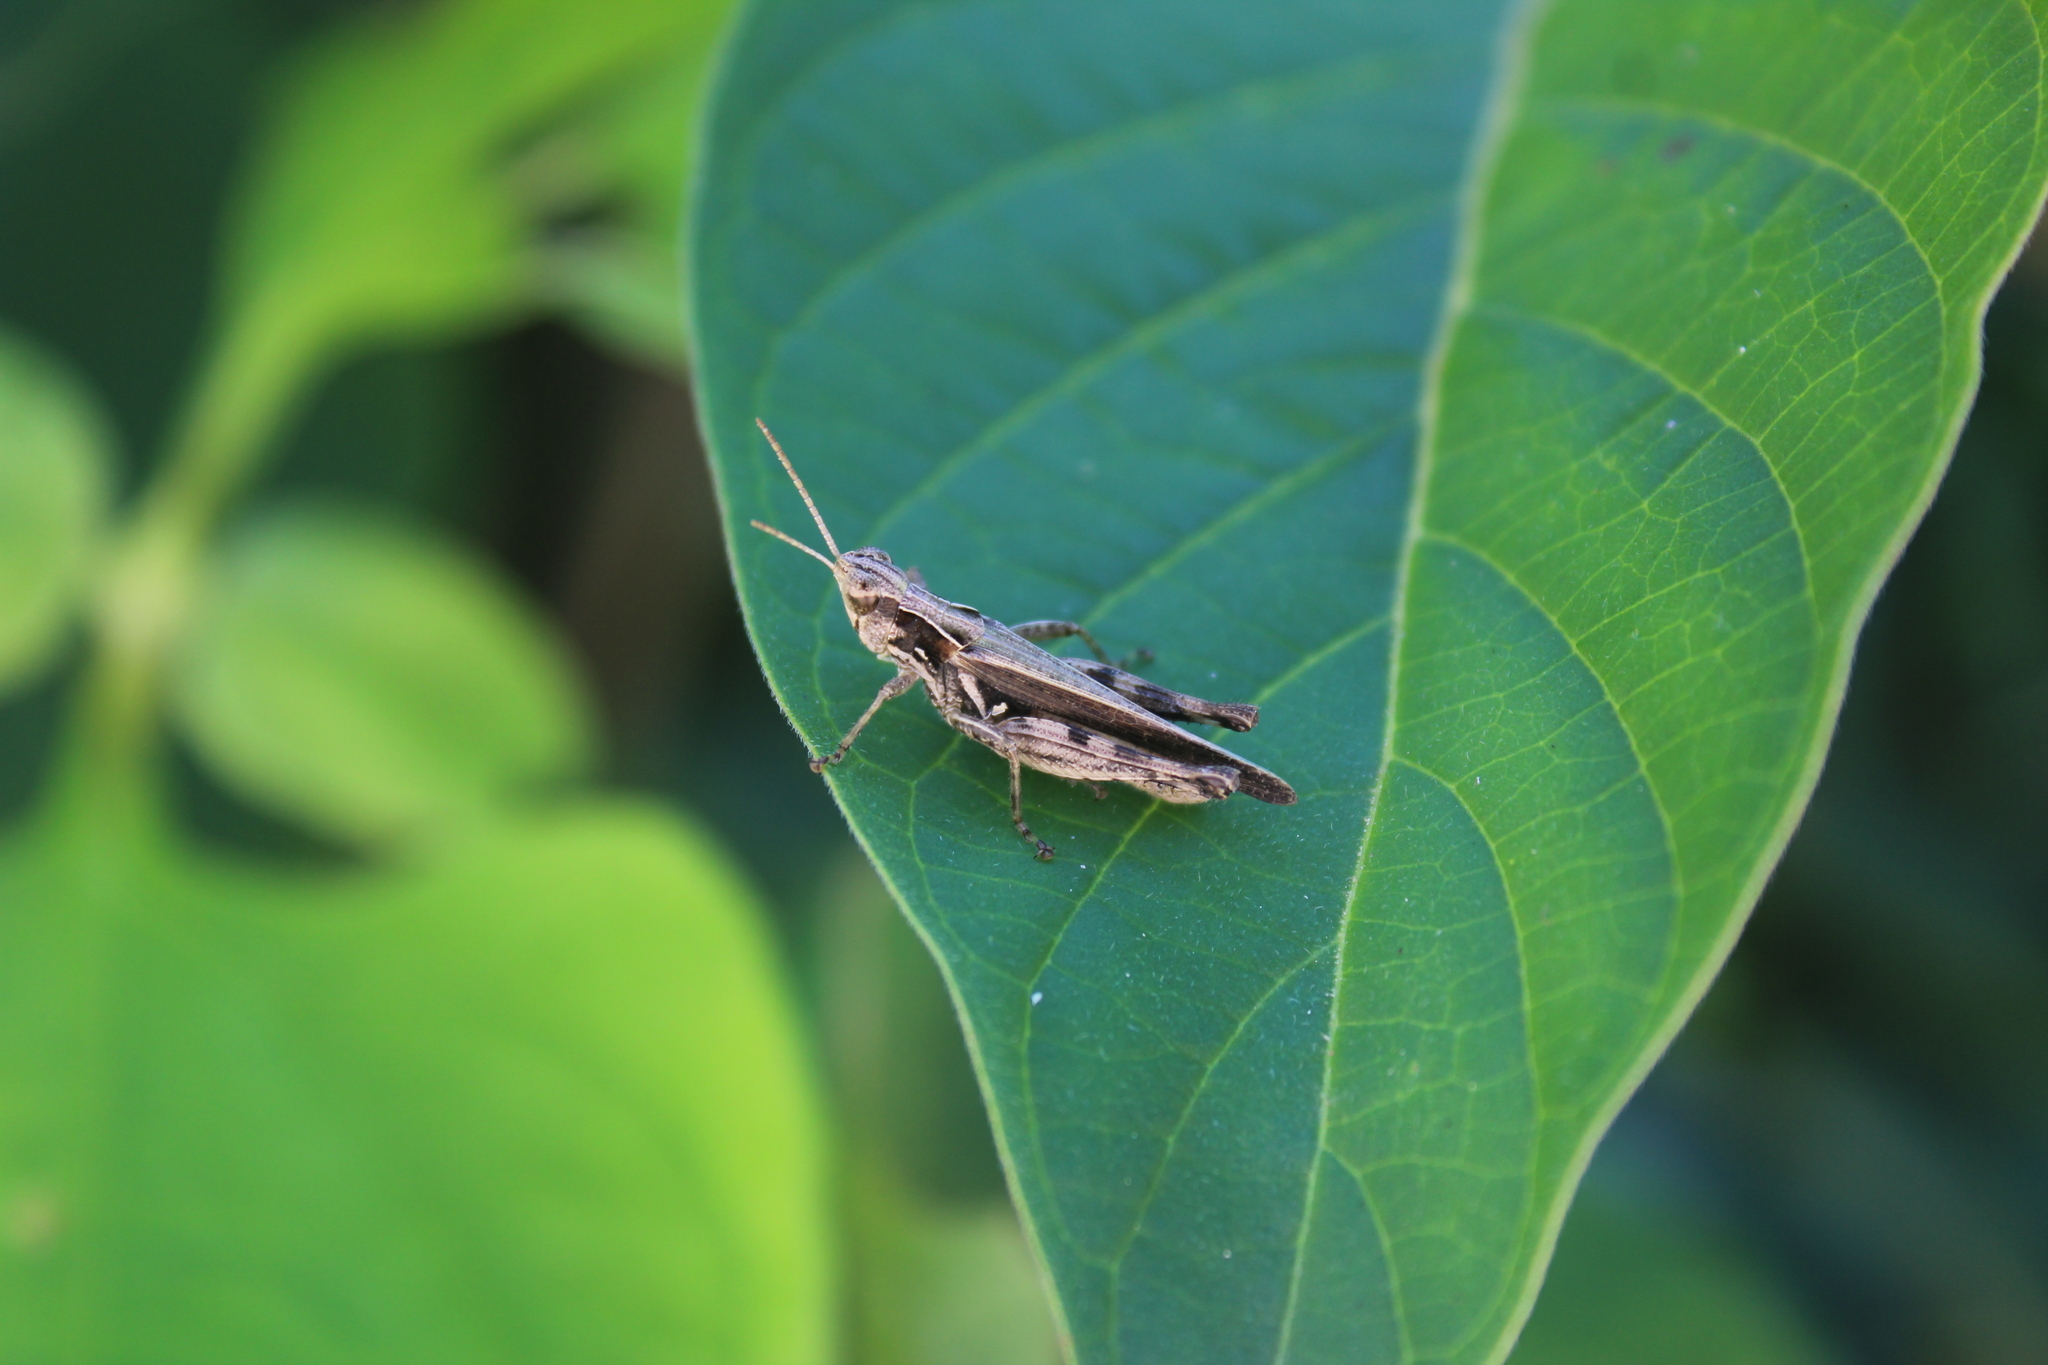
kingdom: Animalia
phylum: Arthropoda
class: Insecta
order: Orthoptera
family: Acrididae
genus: Orphulella
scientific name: Orphulella punctata
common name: Slant-faced grasshopper
